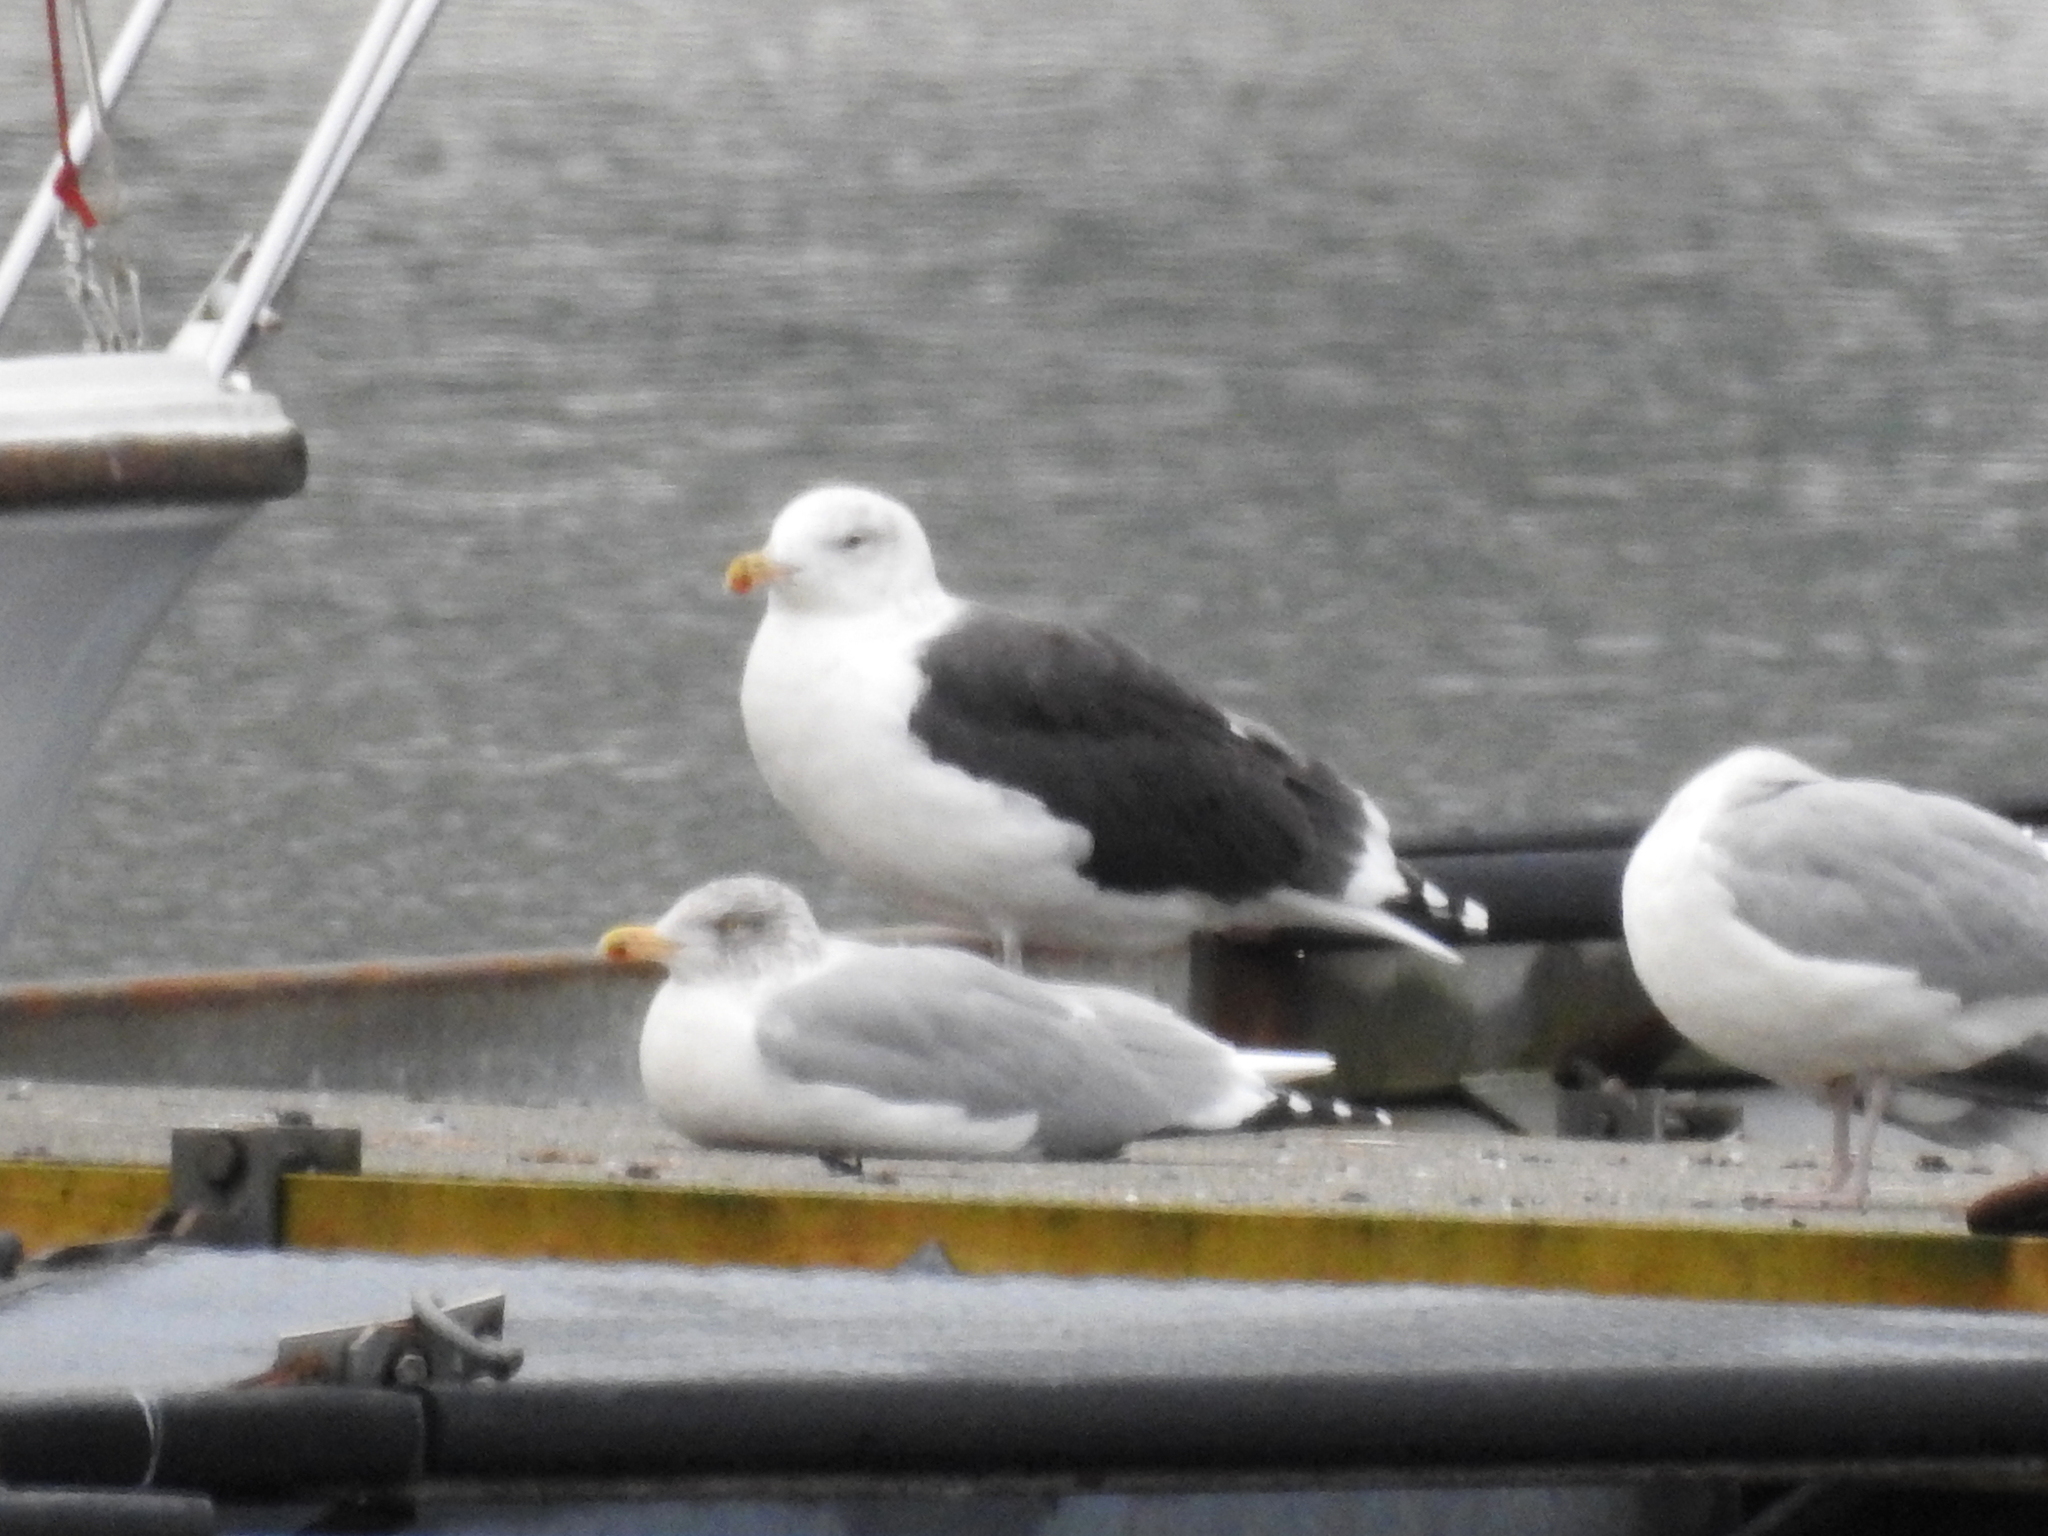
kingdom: Animalia
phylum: Chordata
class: Aves
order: Charadriiformes
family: Laridae
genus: Larus
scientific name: Larus marinus
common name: Great black-backed gull
